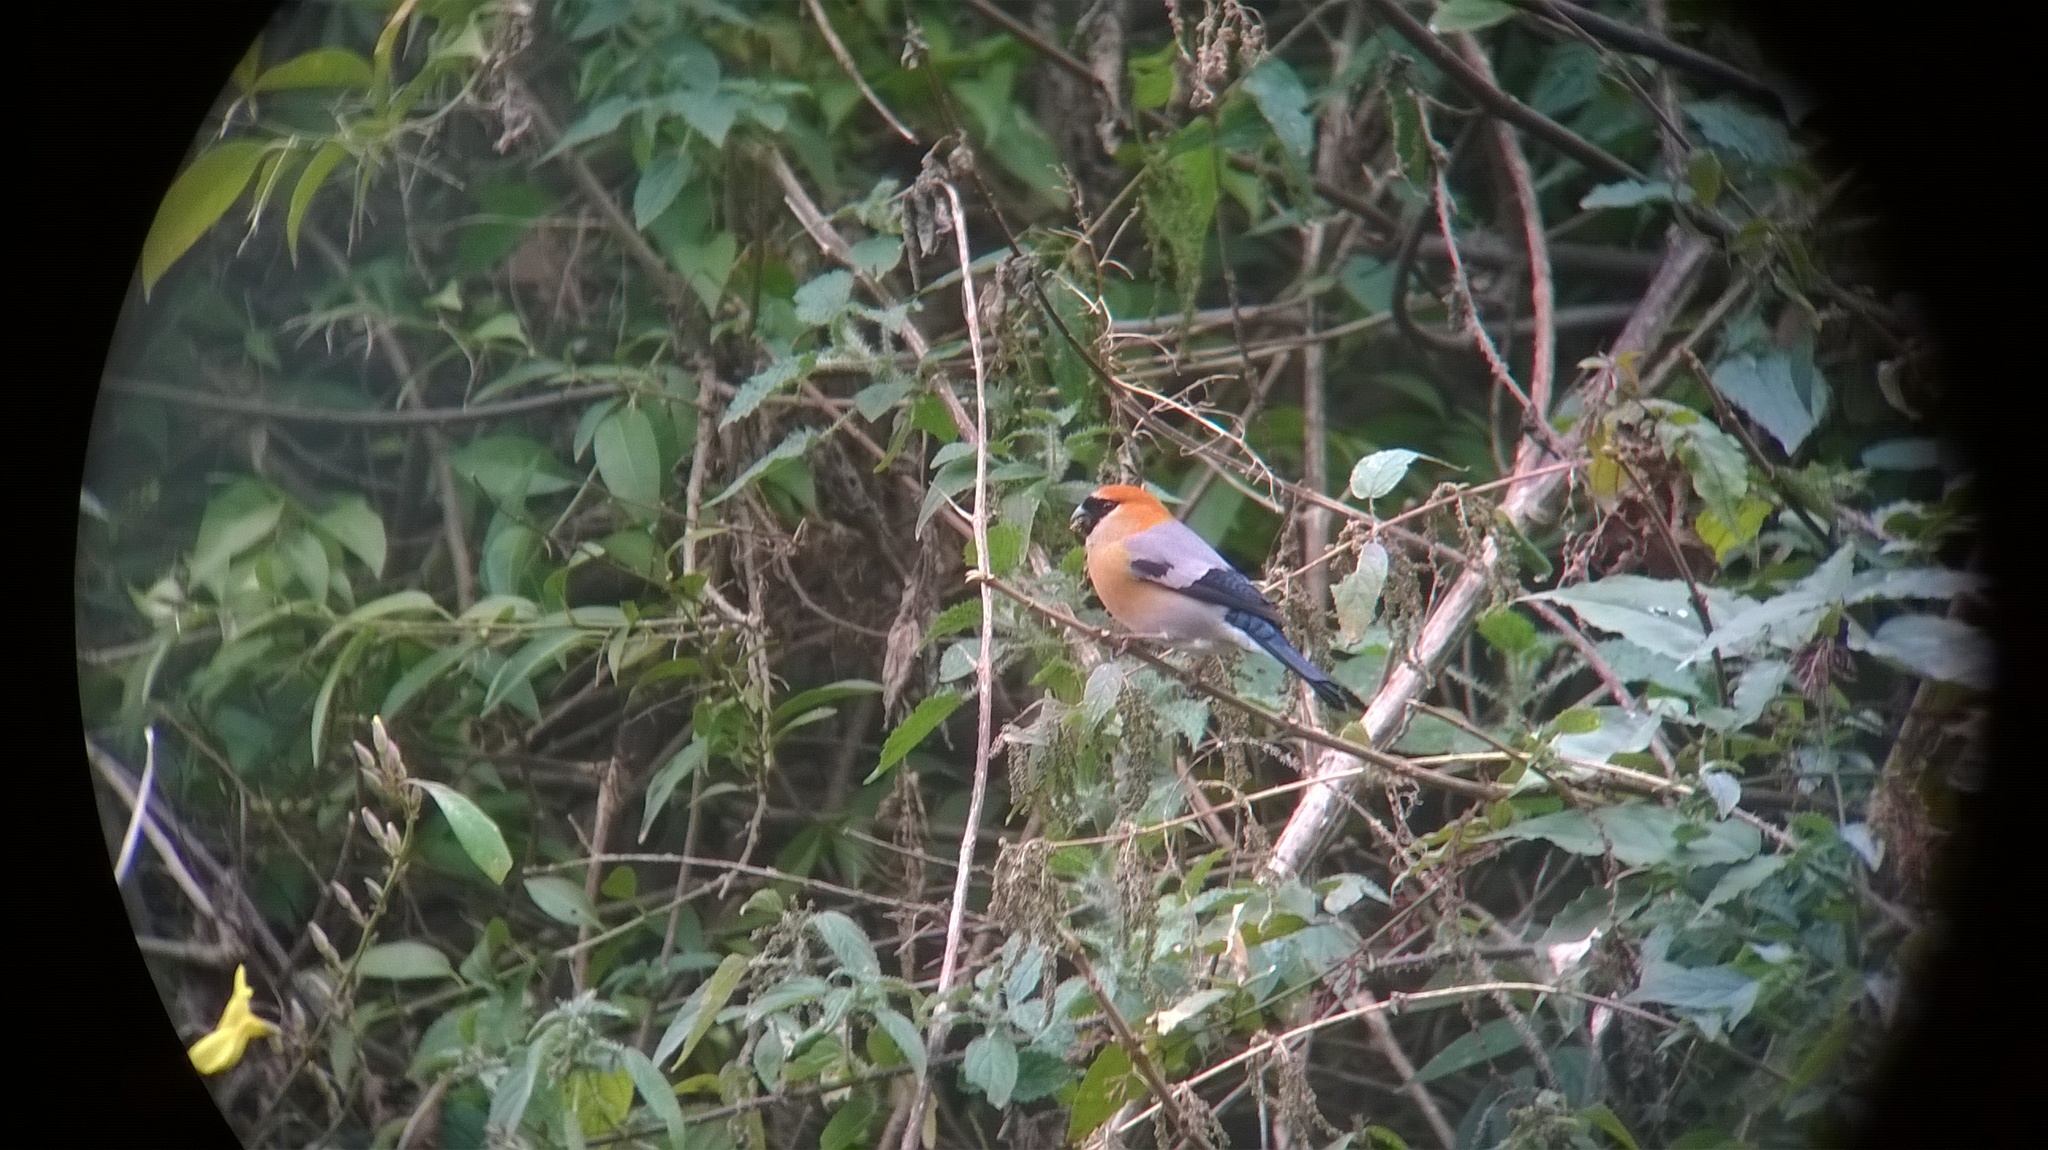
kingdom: Animalia
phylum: Chordata
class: Aves
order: Passeriformes
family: Fringillidae
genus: Pyrrhula
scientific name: Pyrrhula erythrocephala
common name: Red-headed bullfinch
